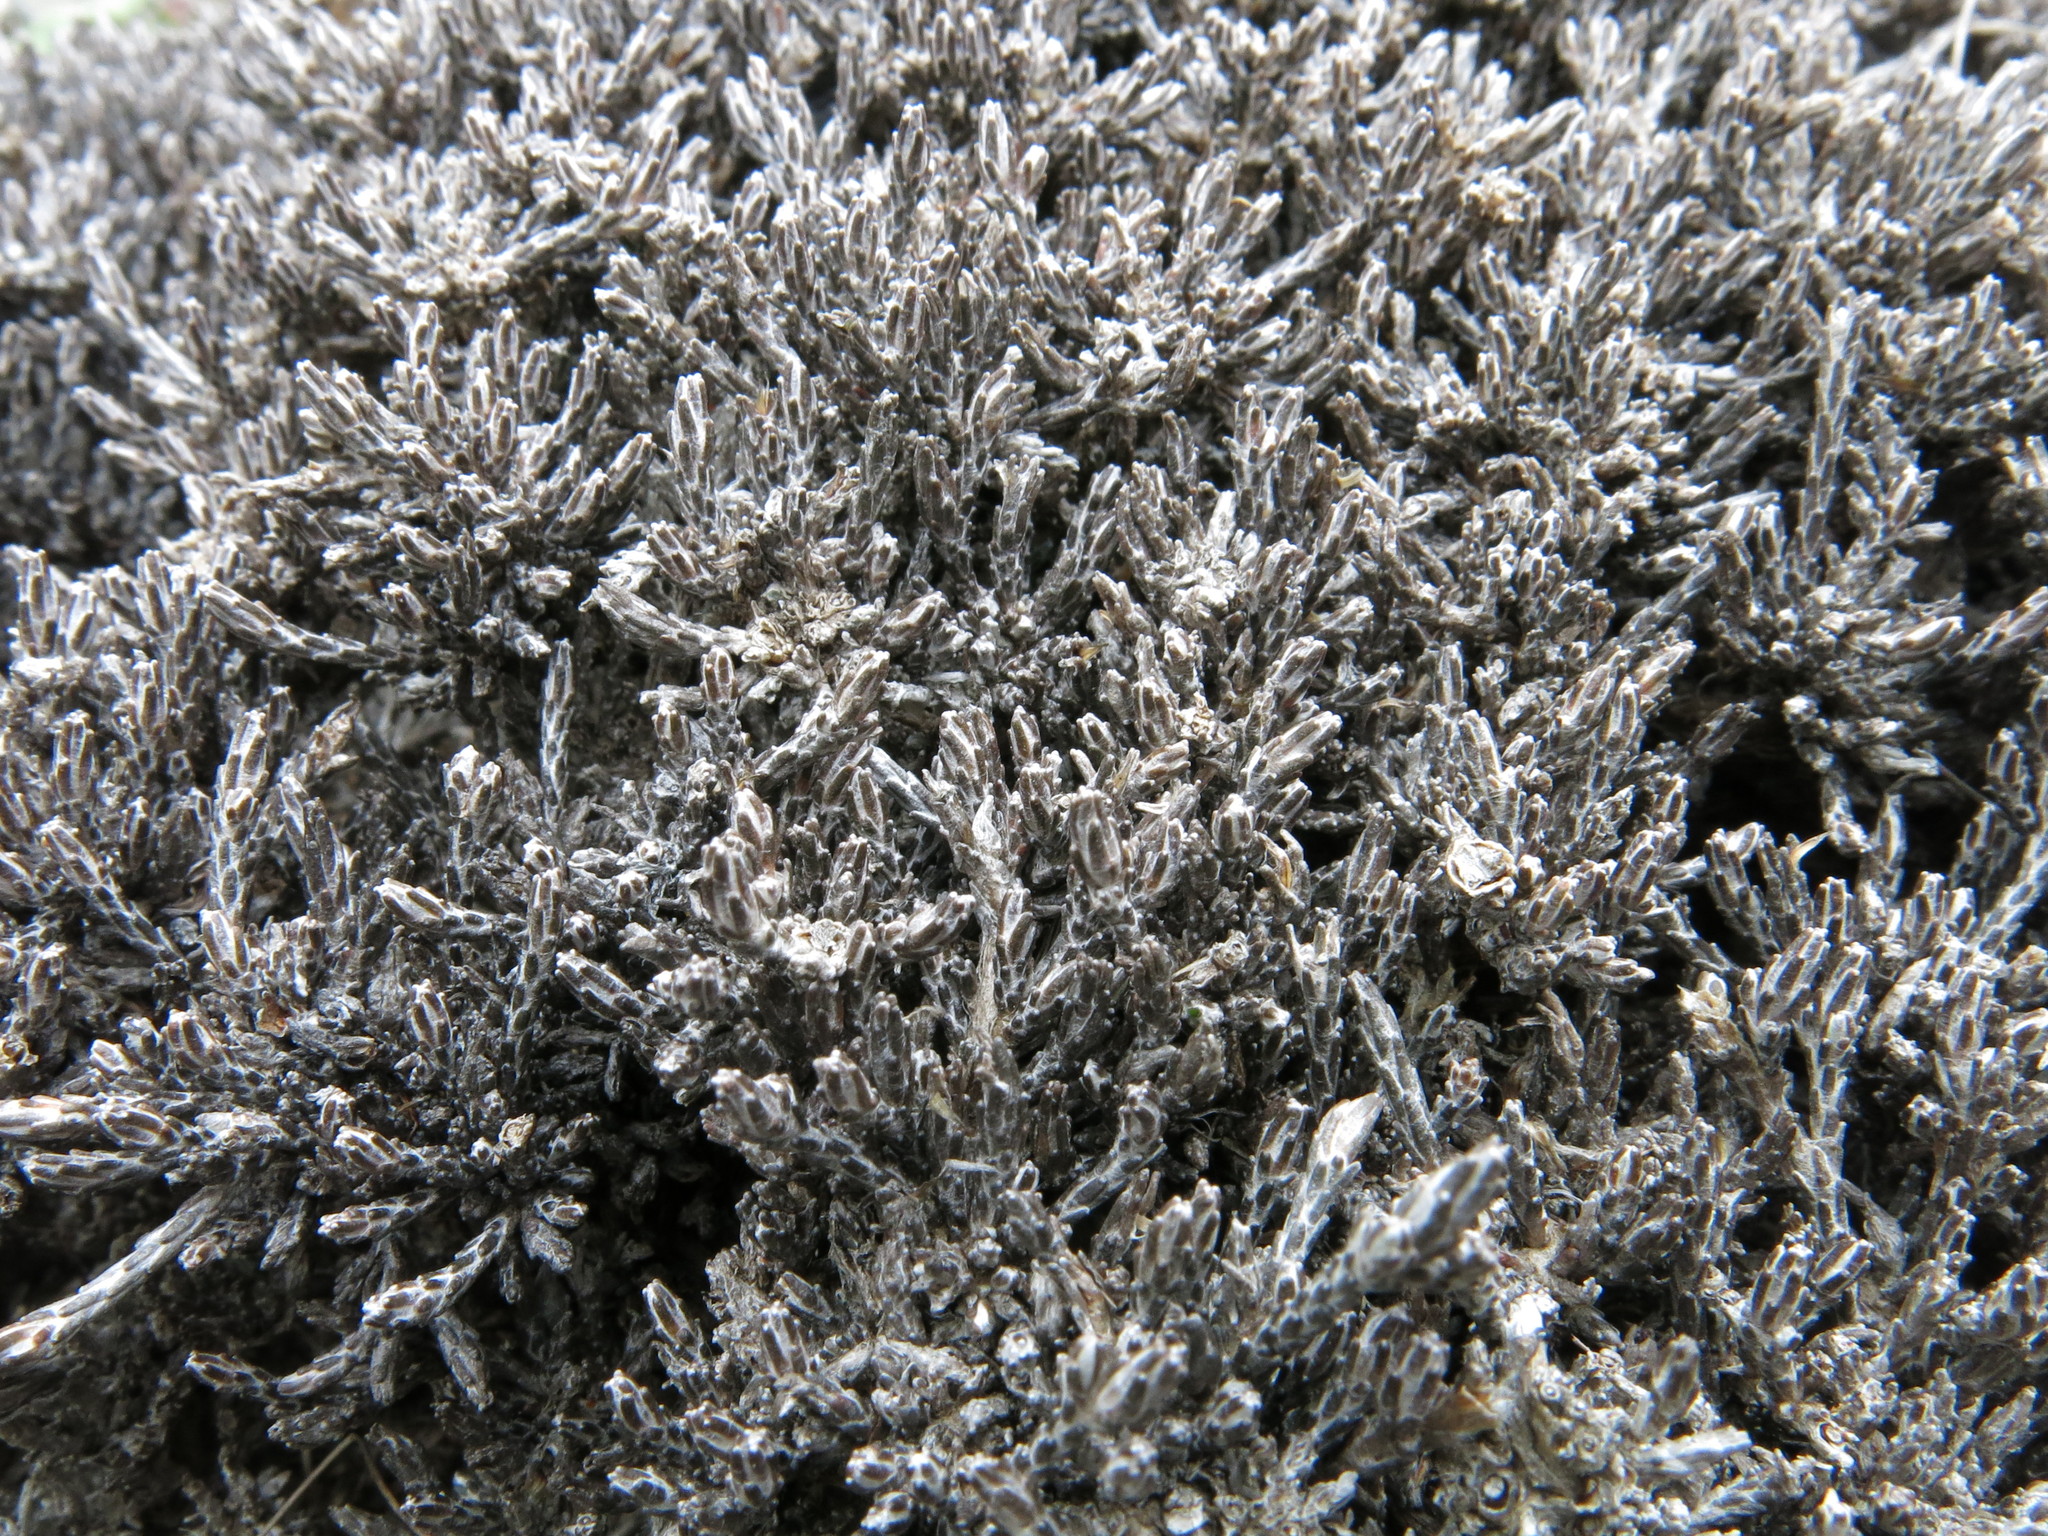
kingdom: Plantae
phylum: Tracheophyta
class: Magnoliopsida
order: Asterales
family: Asteraceae
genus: Ozothamnus
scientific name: Ozothamnus depressus
